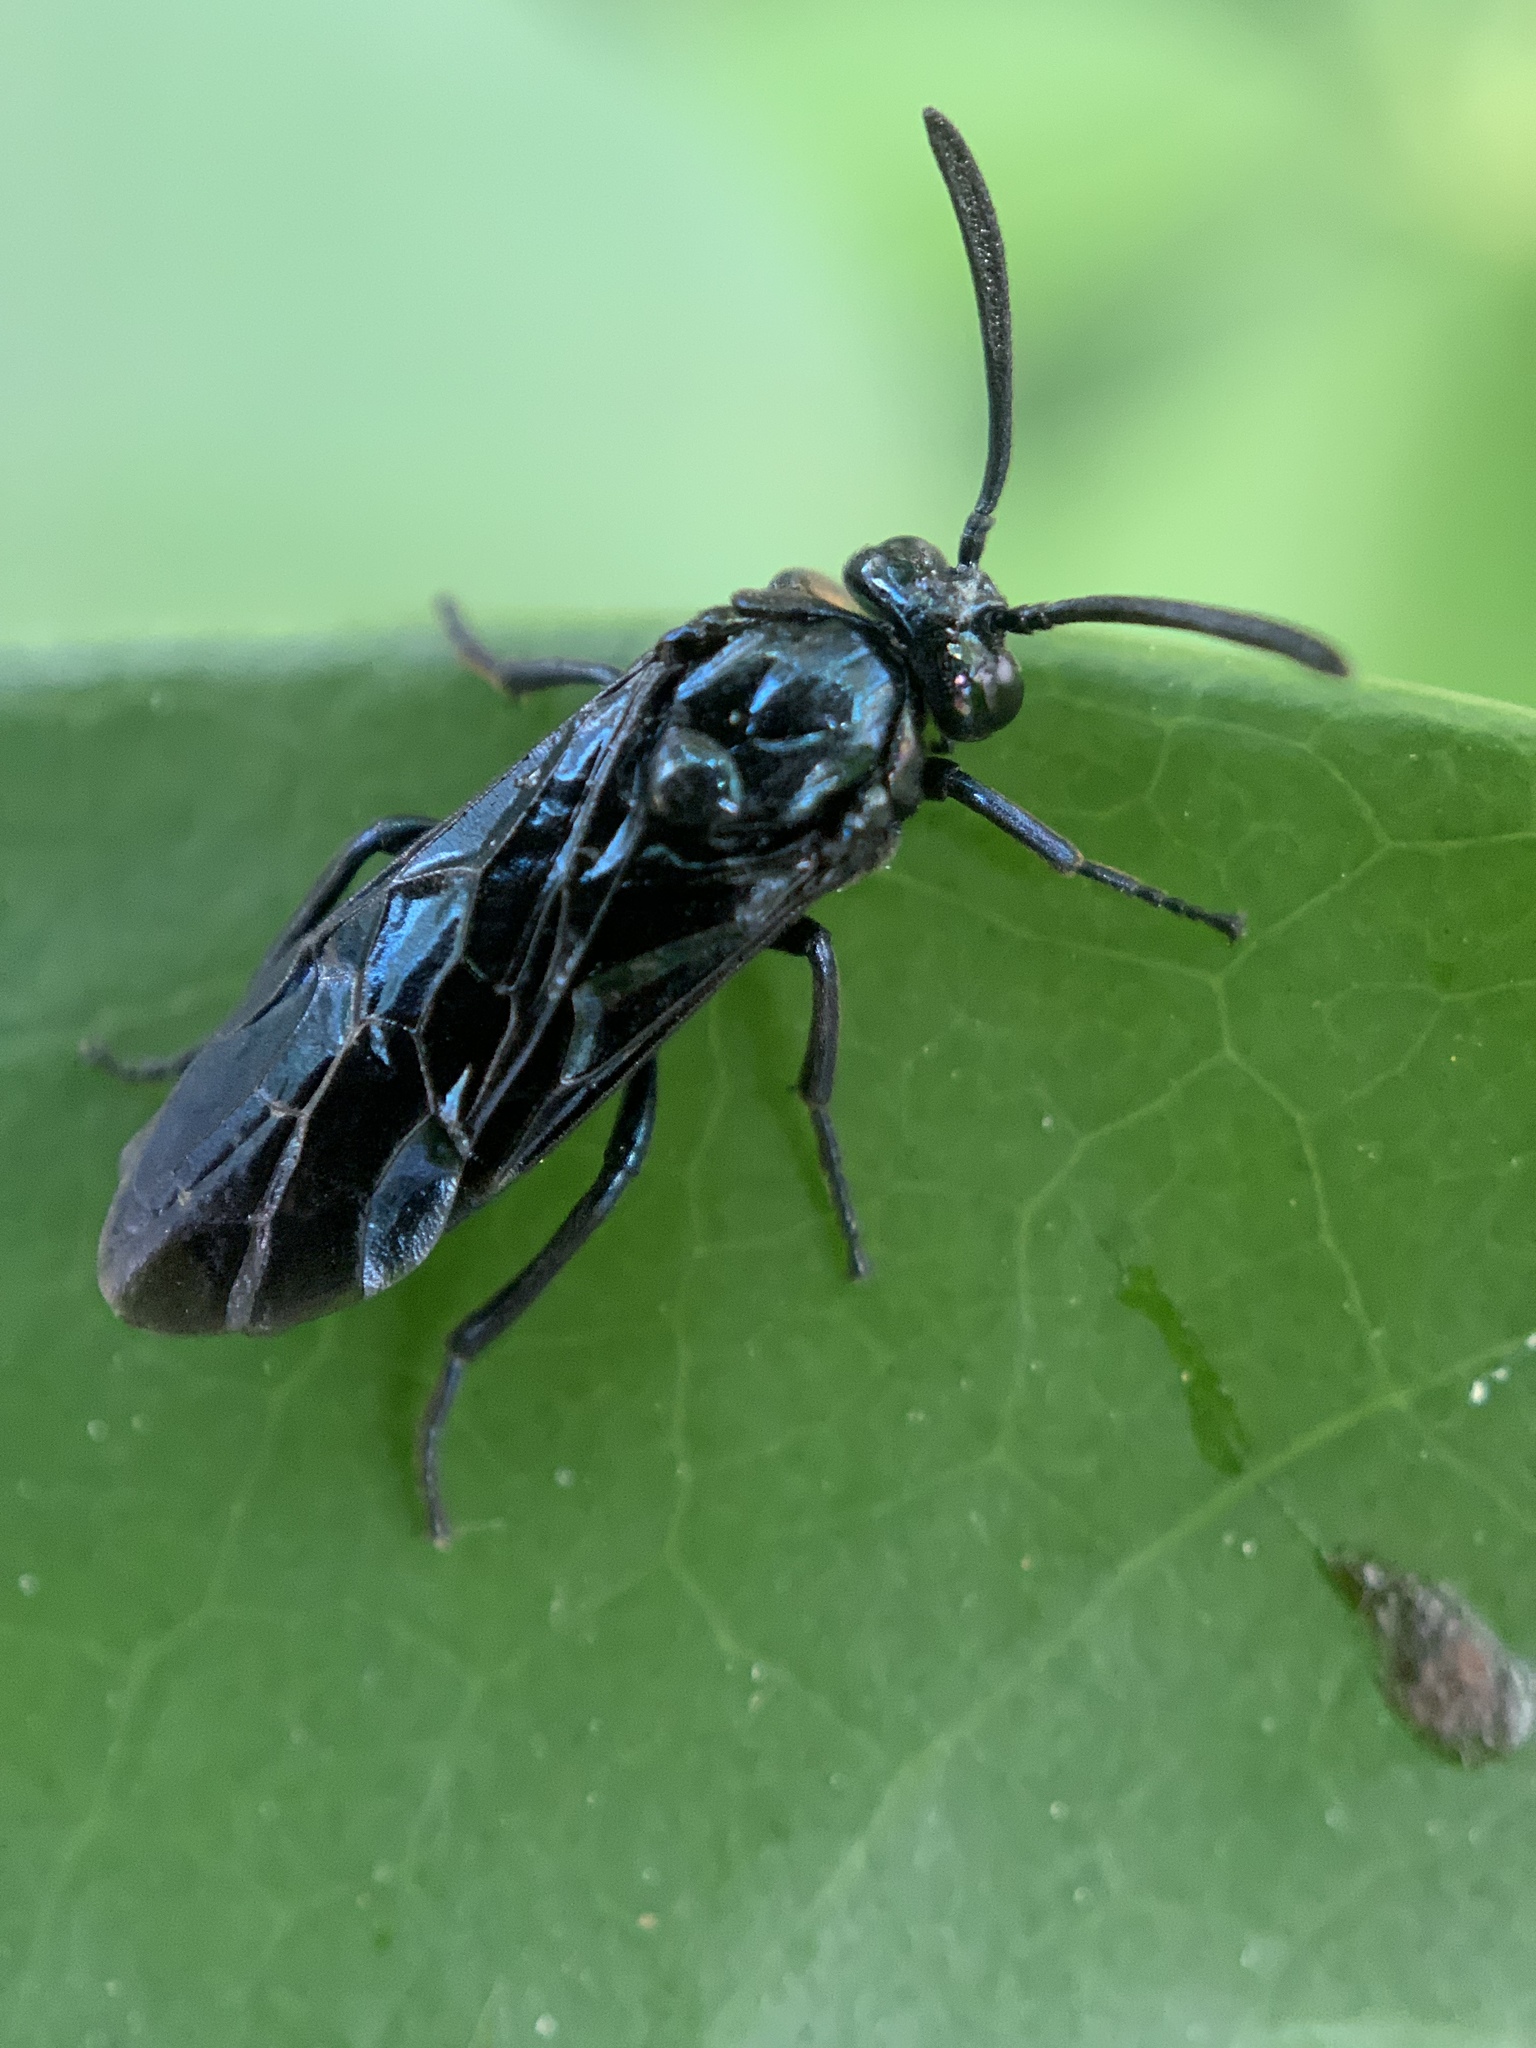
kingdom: Animalia
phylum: Arthropoda
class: Insecta
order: Hymenoptera
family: Argidae
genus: Arge
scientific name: Arge similis
